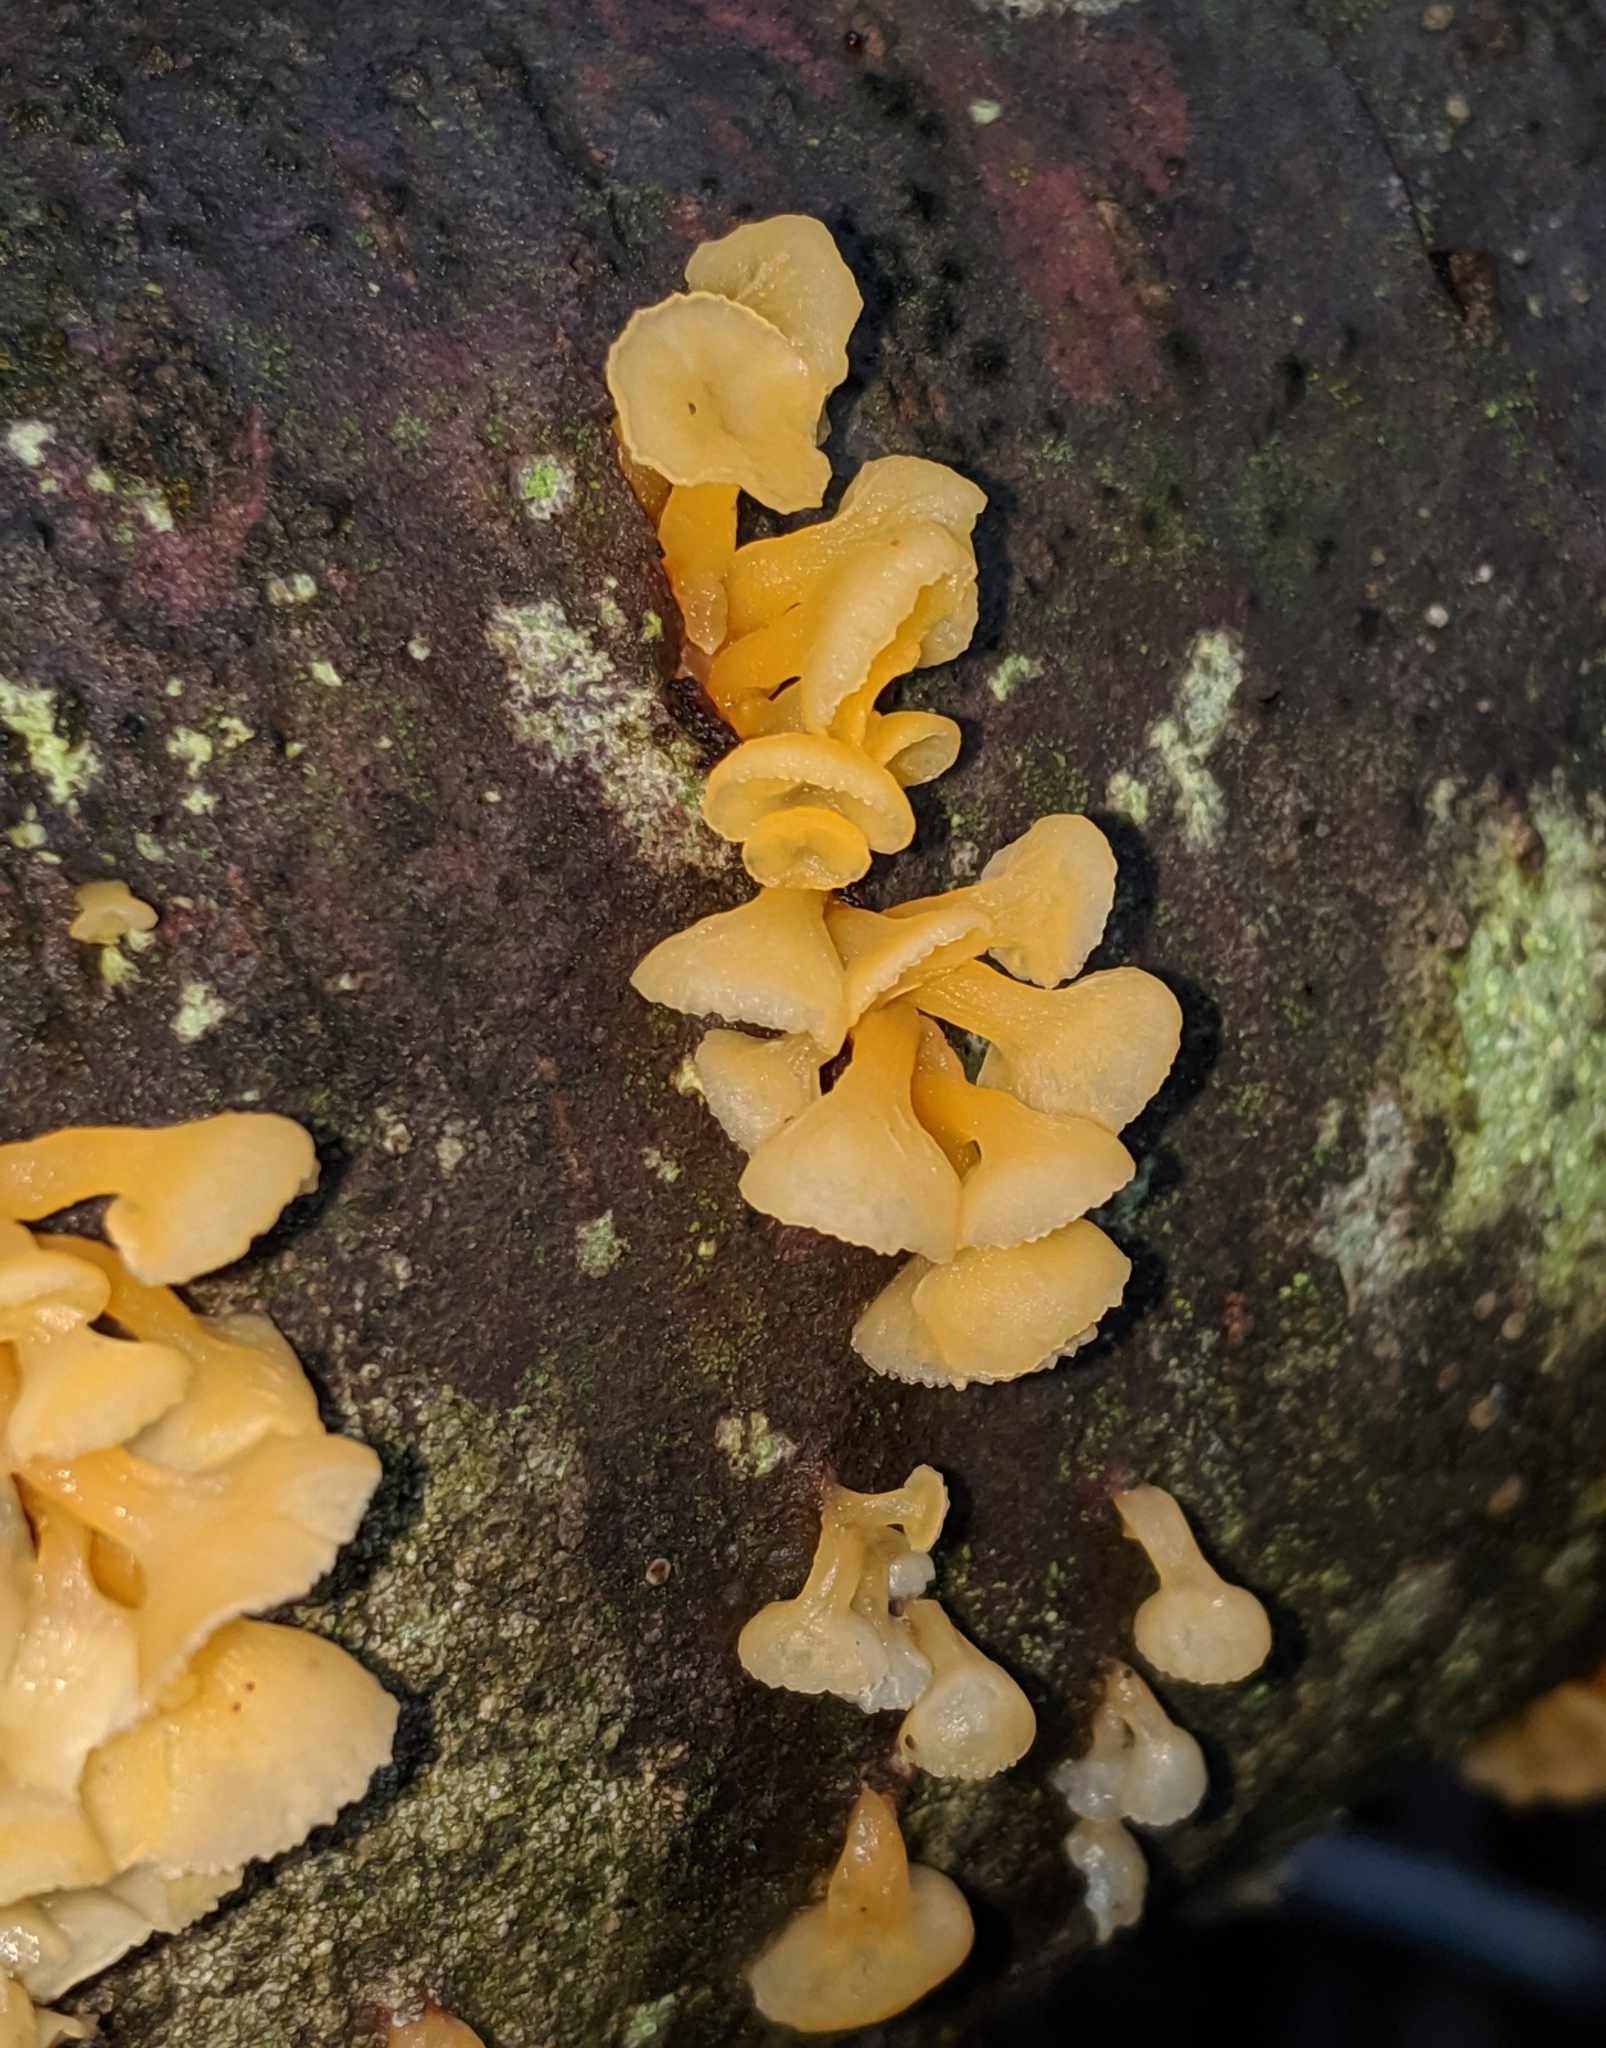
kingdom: Fungi
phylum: Basidiomycota
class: Dacrymycetes
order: Dacrymycetales
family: Dacrymycetaceae
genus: Guepiniopsis
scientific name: Guepiniopsis buccina
